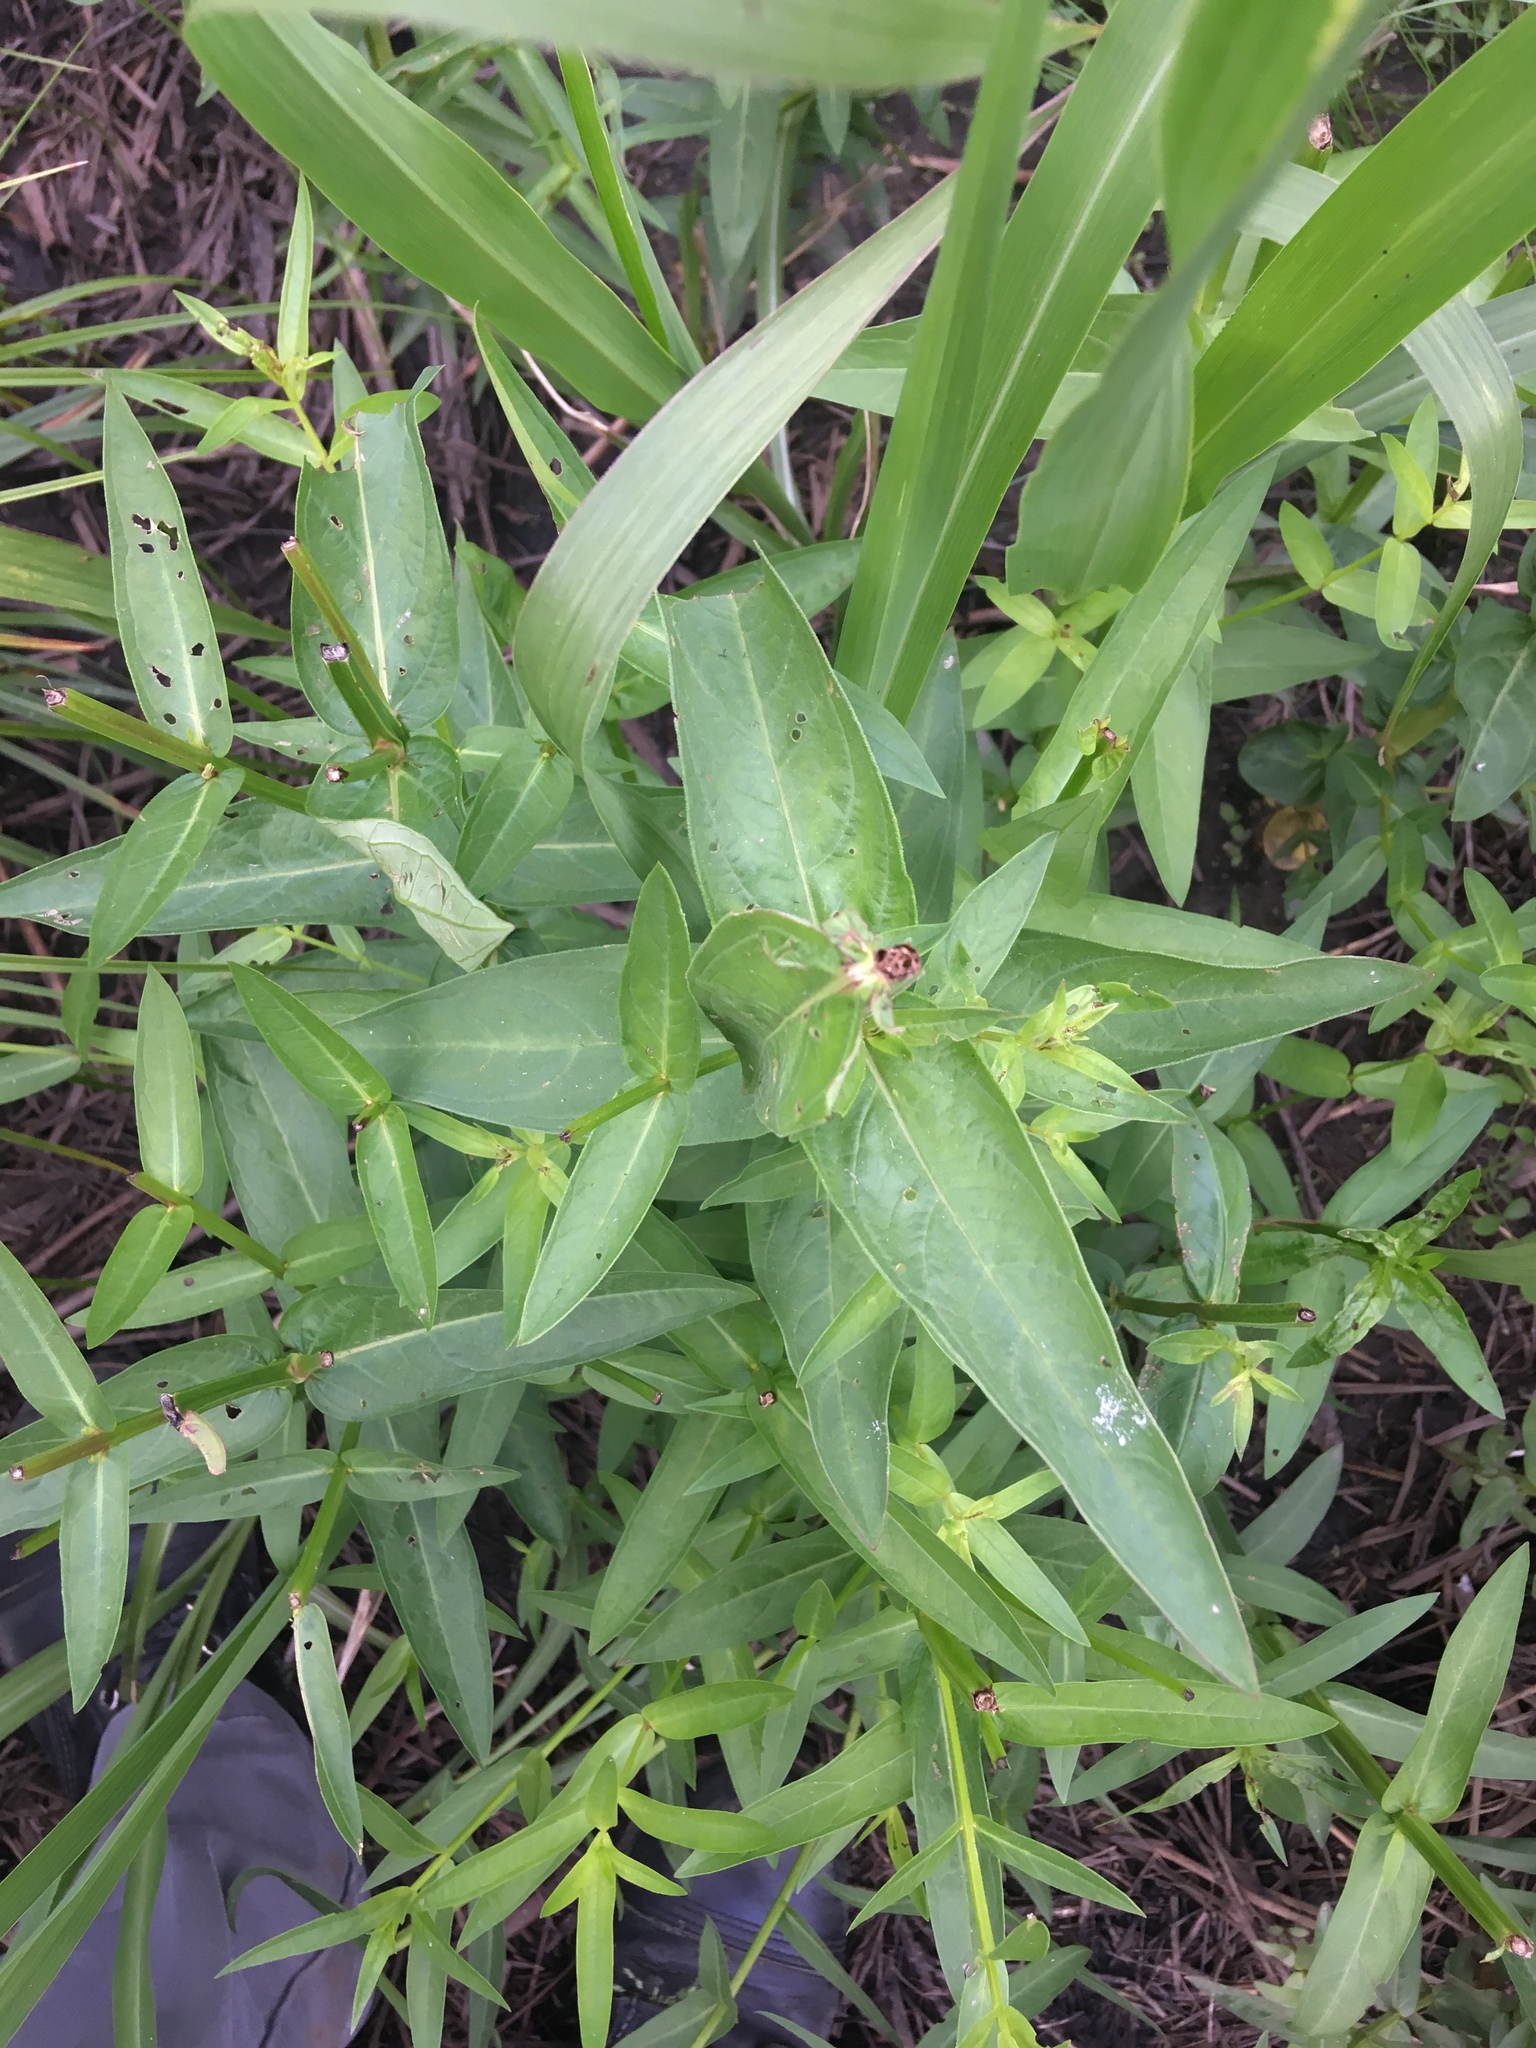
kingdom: Plantae
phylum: Tracheophyta
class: Magnoliopsida
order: Myrtales
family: Lythraceae
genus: Lythrum
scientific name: Lythrum salicaria
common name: Purple loosestrife
